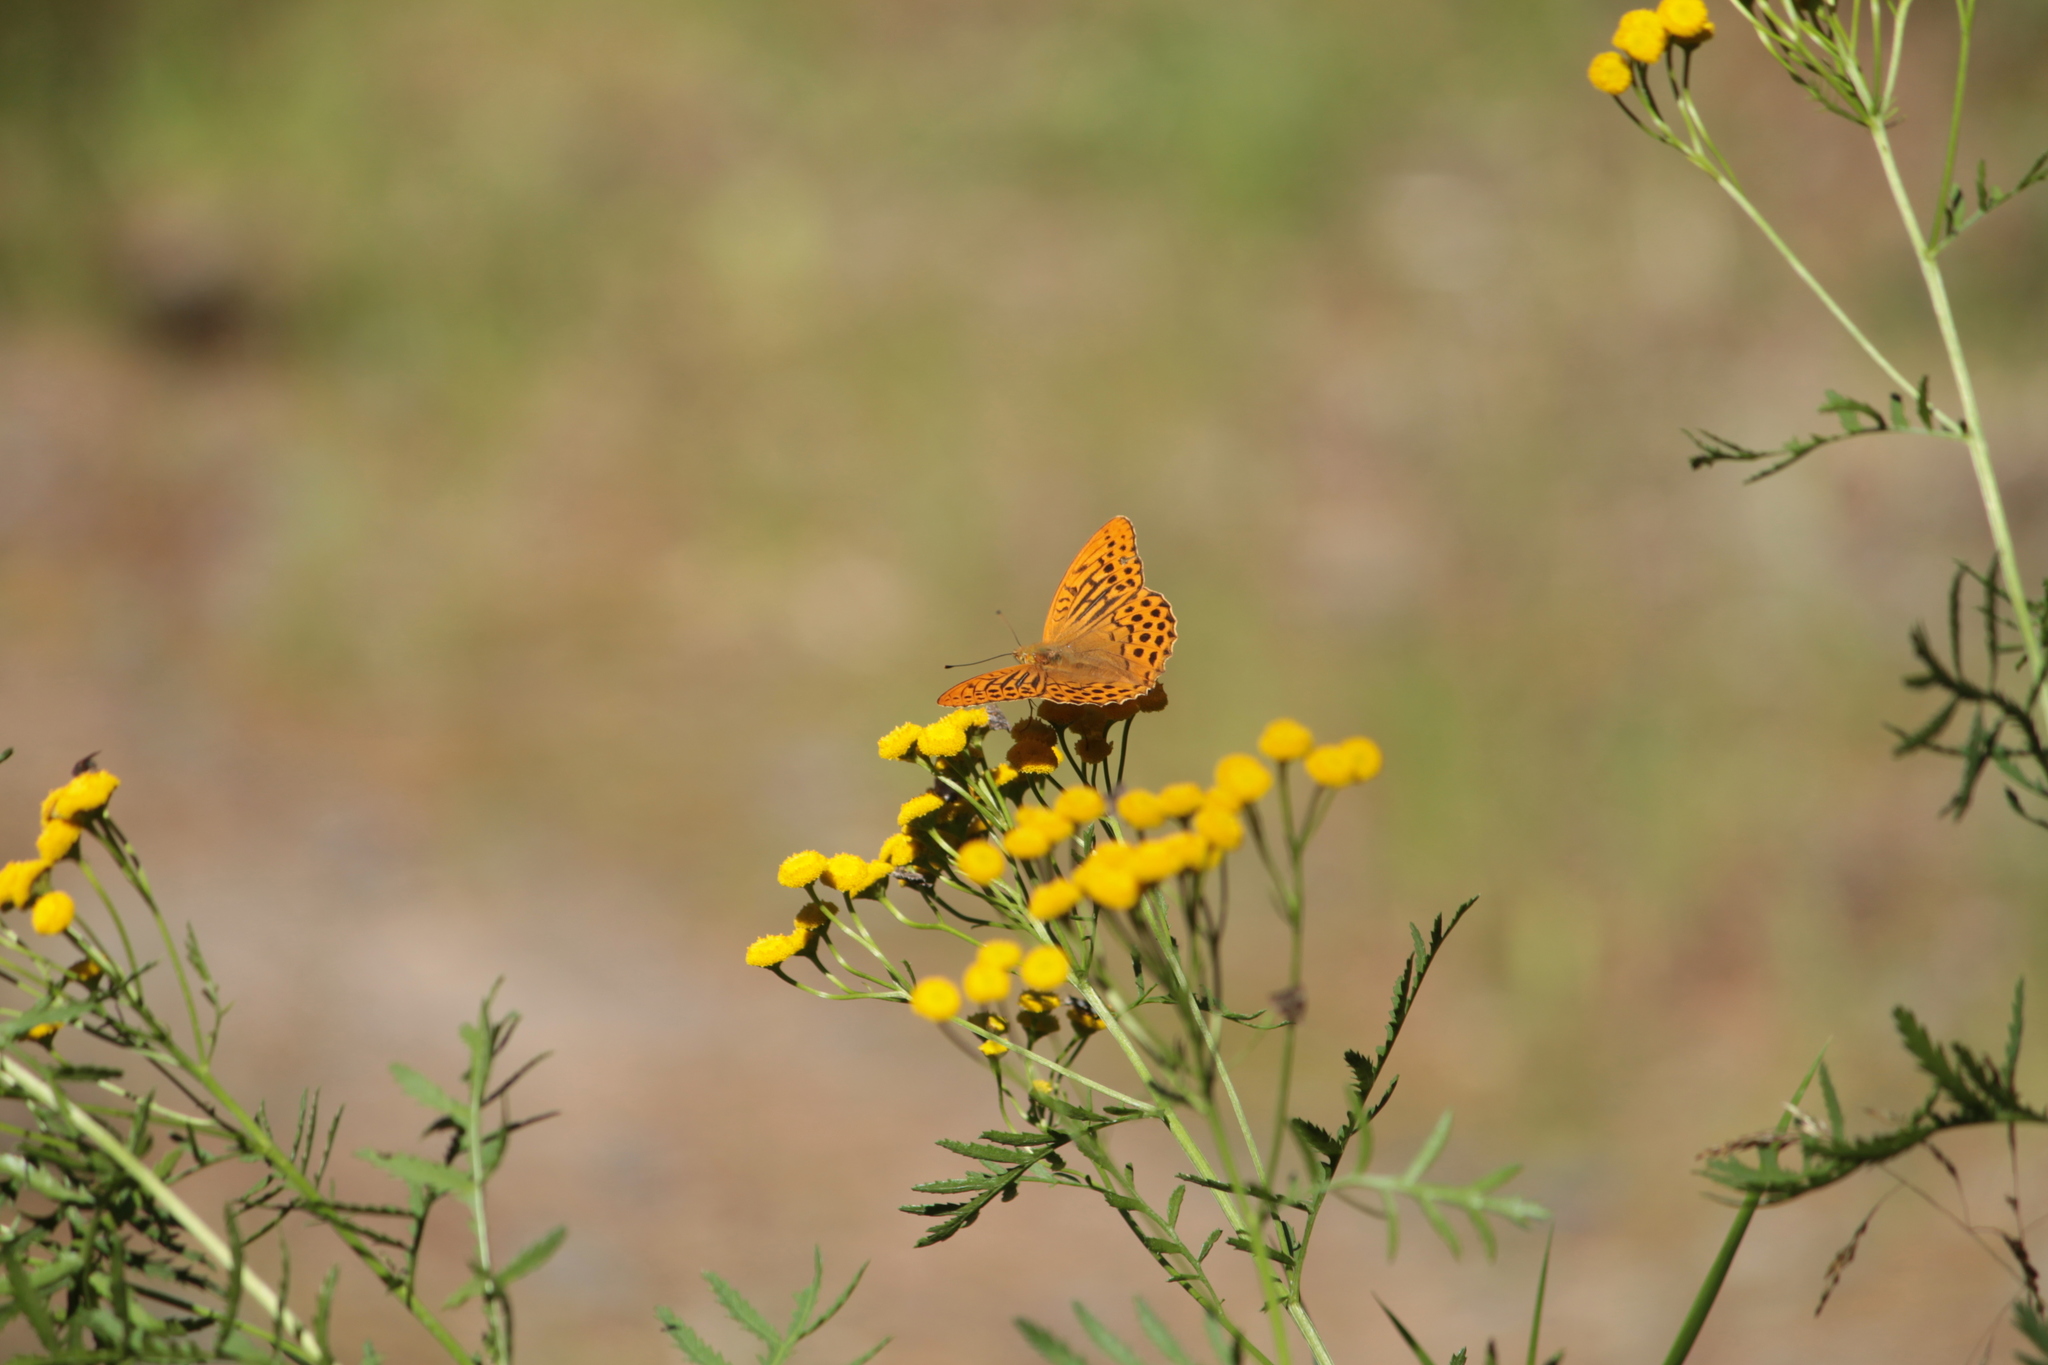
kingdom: Animalia
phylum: Arthropoda
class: Insecta
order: Lepidoptera
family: Nymphalidae
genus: Argynnis
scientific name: Argynnis paphia
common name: Silver-washed fritillary
